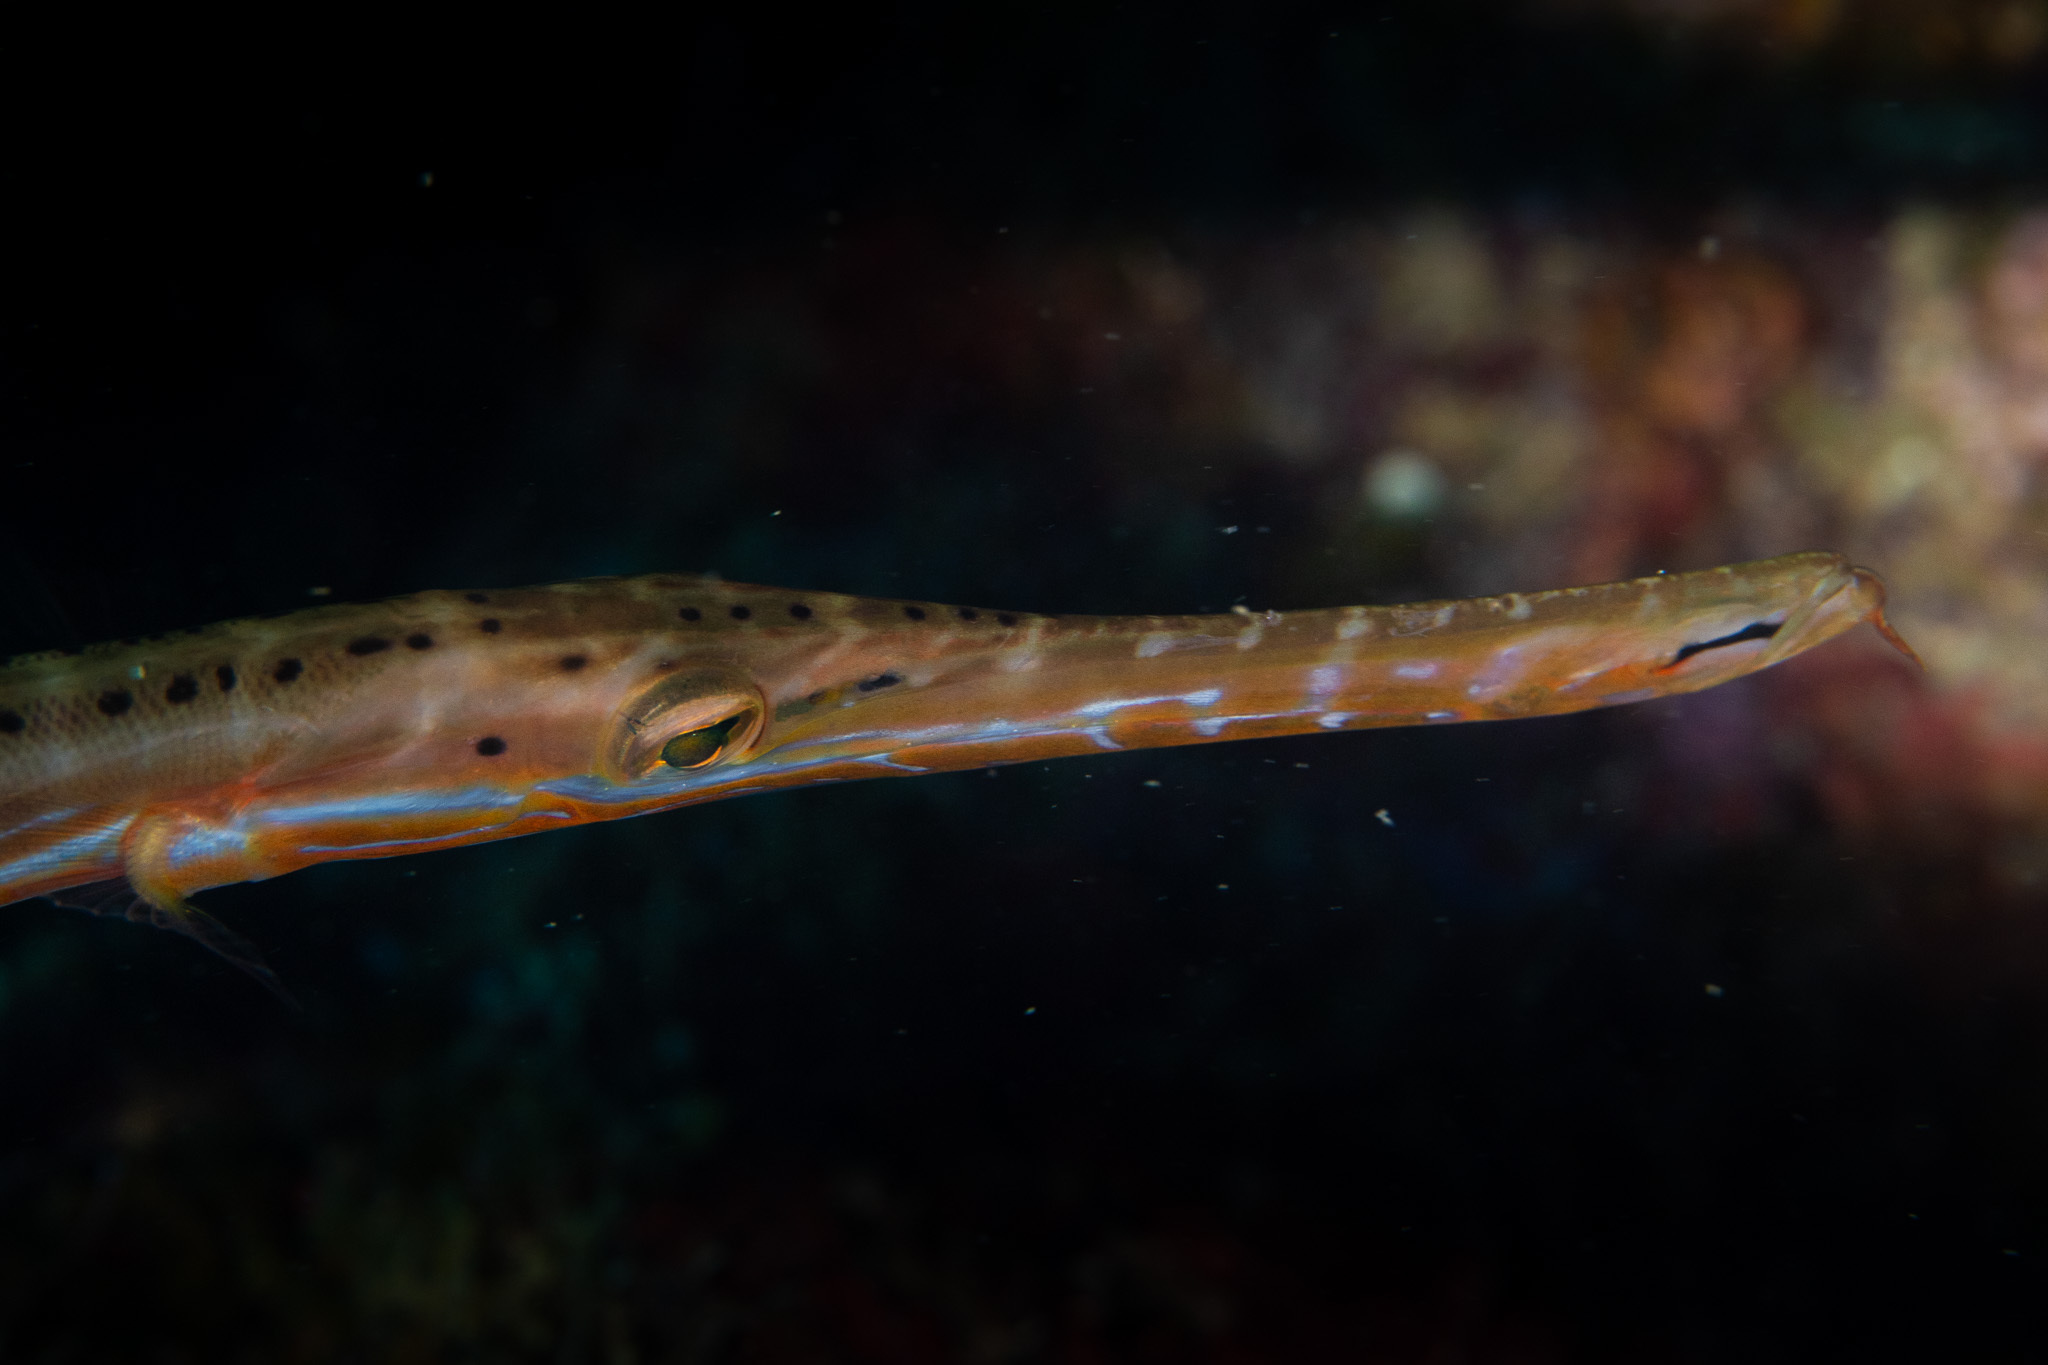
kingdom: Animalia
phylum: Chordata
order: Syngnathiformes
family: Aulostomidae
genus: Aulostomus
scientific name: Aulostomus maculatus
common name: West atlantic trumpetfish
